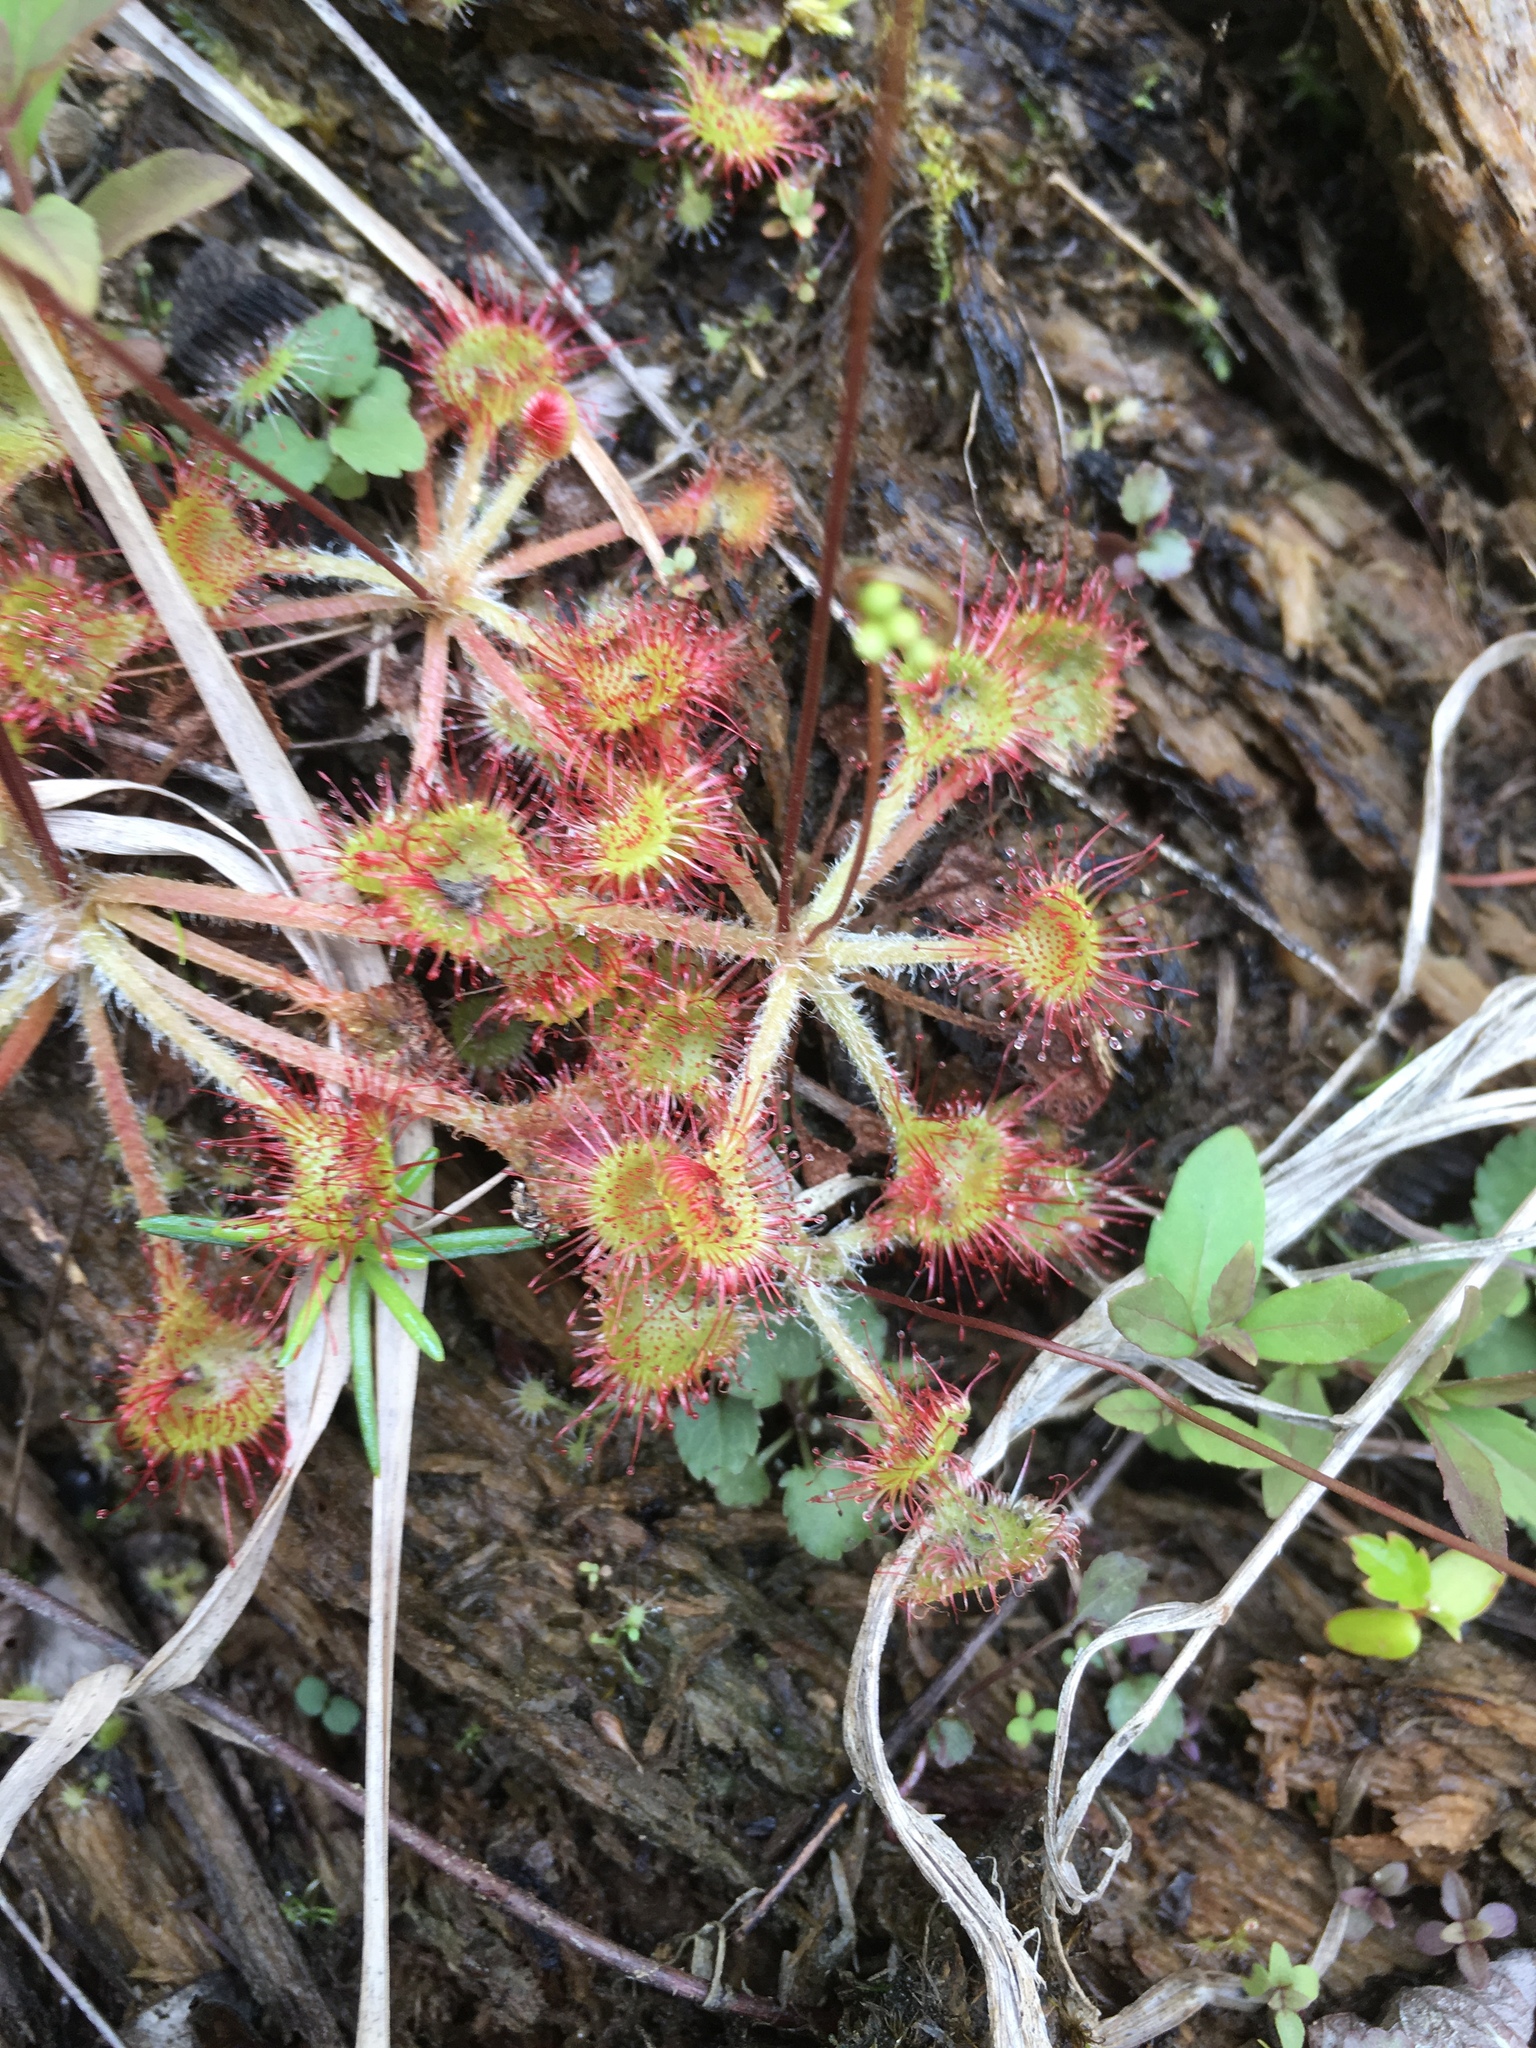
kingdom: Plantae
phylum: Tracheophyta
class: Magnoliopsida
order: Caryophyllales
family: Droseraceae
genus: Drosera
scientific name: Drosera rotundifolia
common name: Round-leaved sundew
